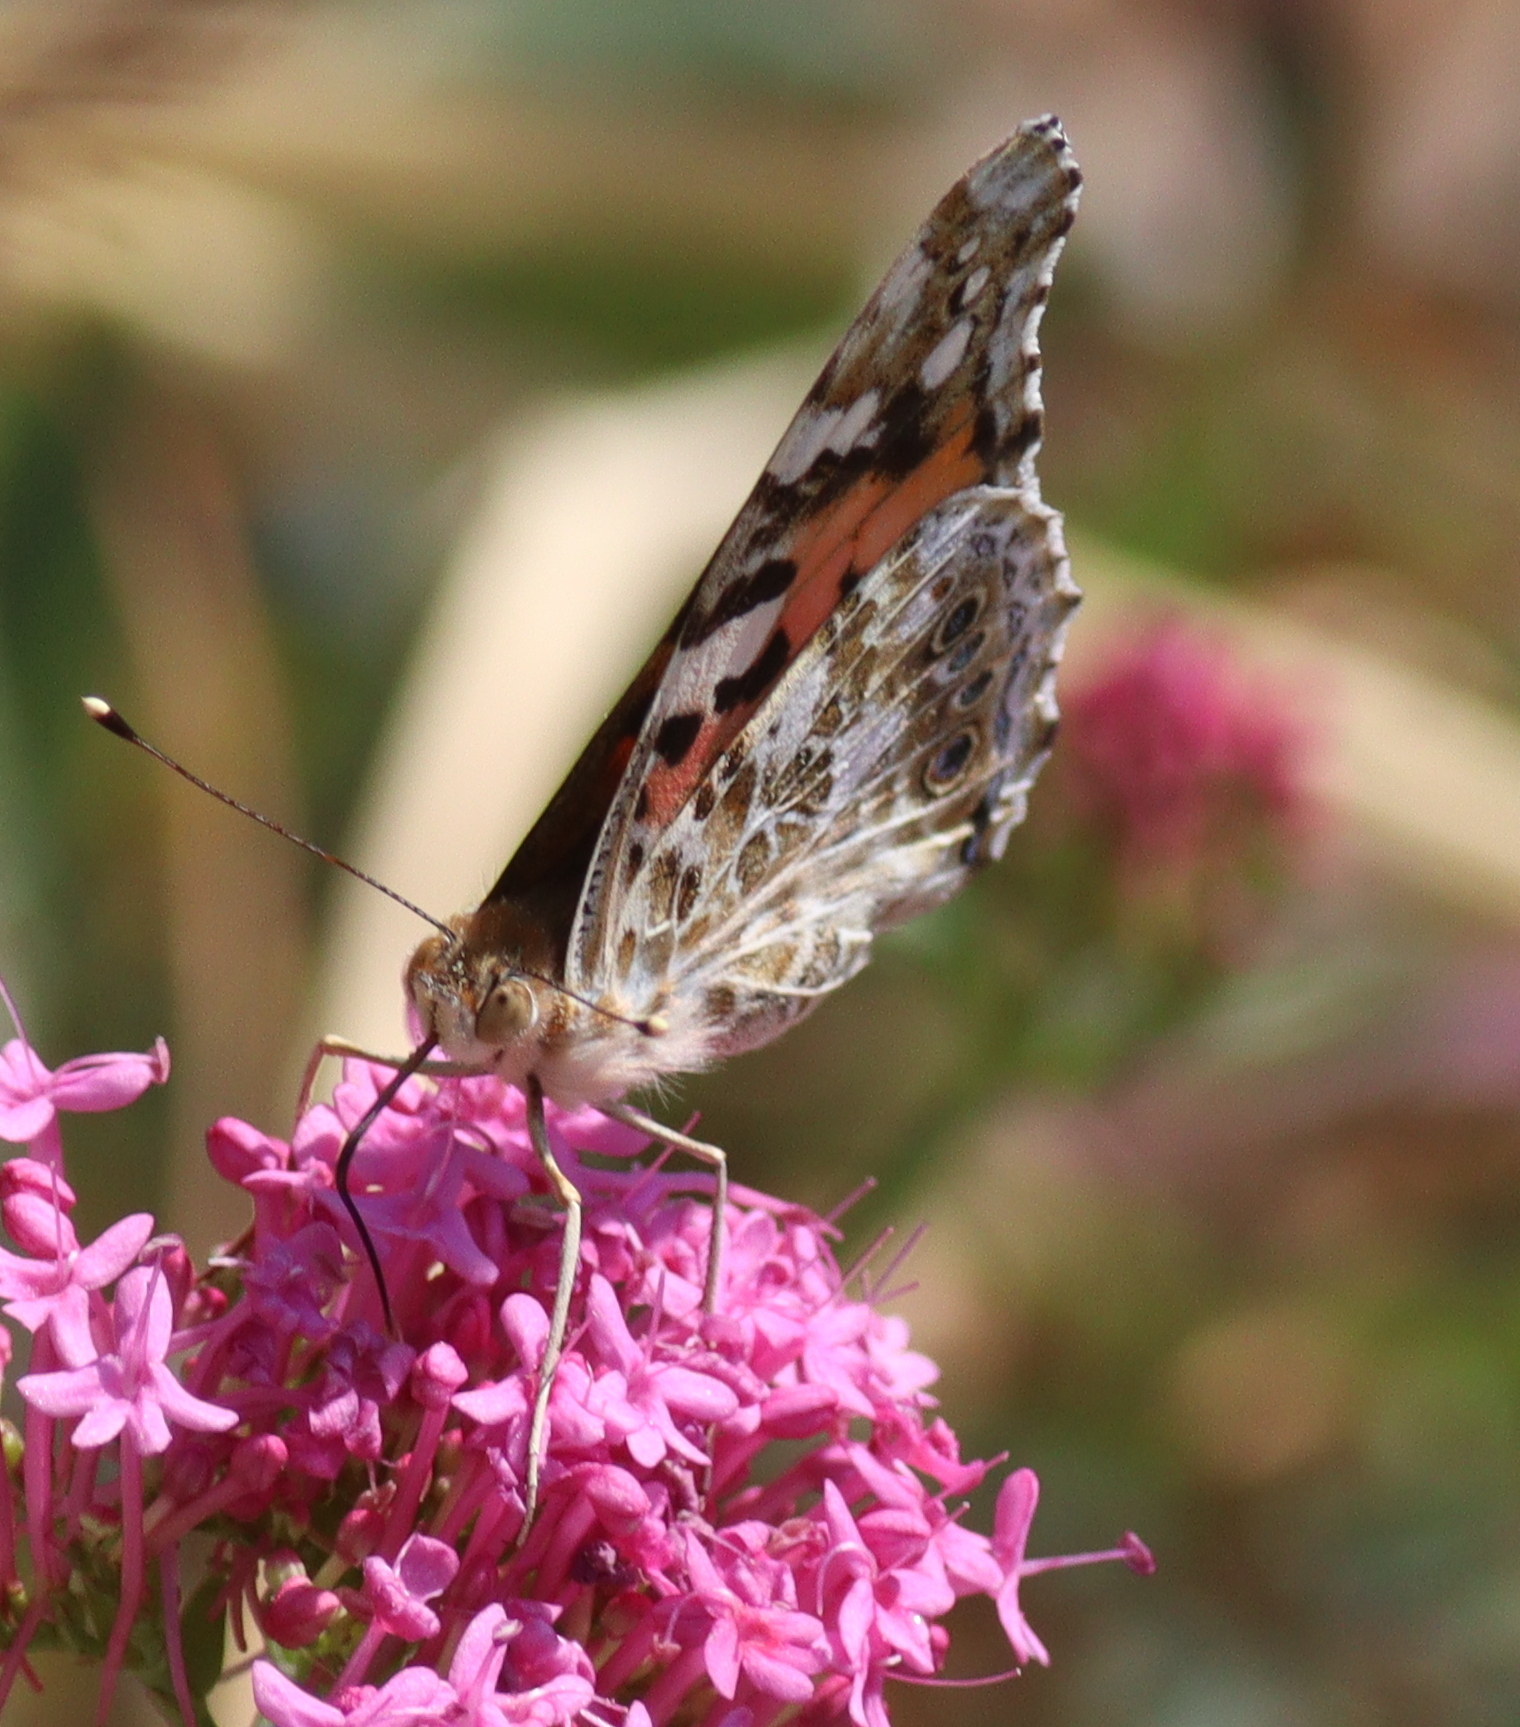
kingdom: Animalia
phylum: Arthropoda
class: Insecta
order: Lepidoptera
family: Nymphalidae
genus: Vanessa
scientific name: Vanessa cardui
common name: Painted lady
